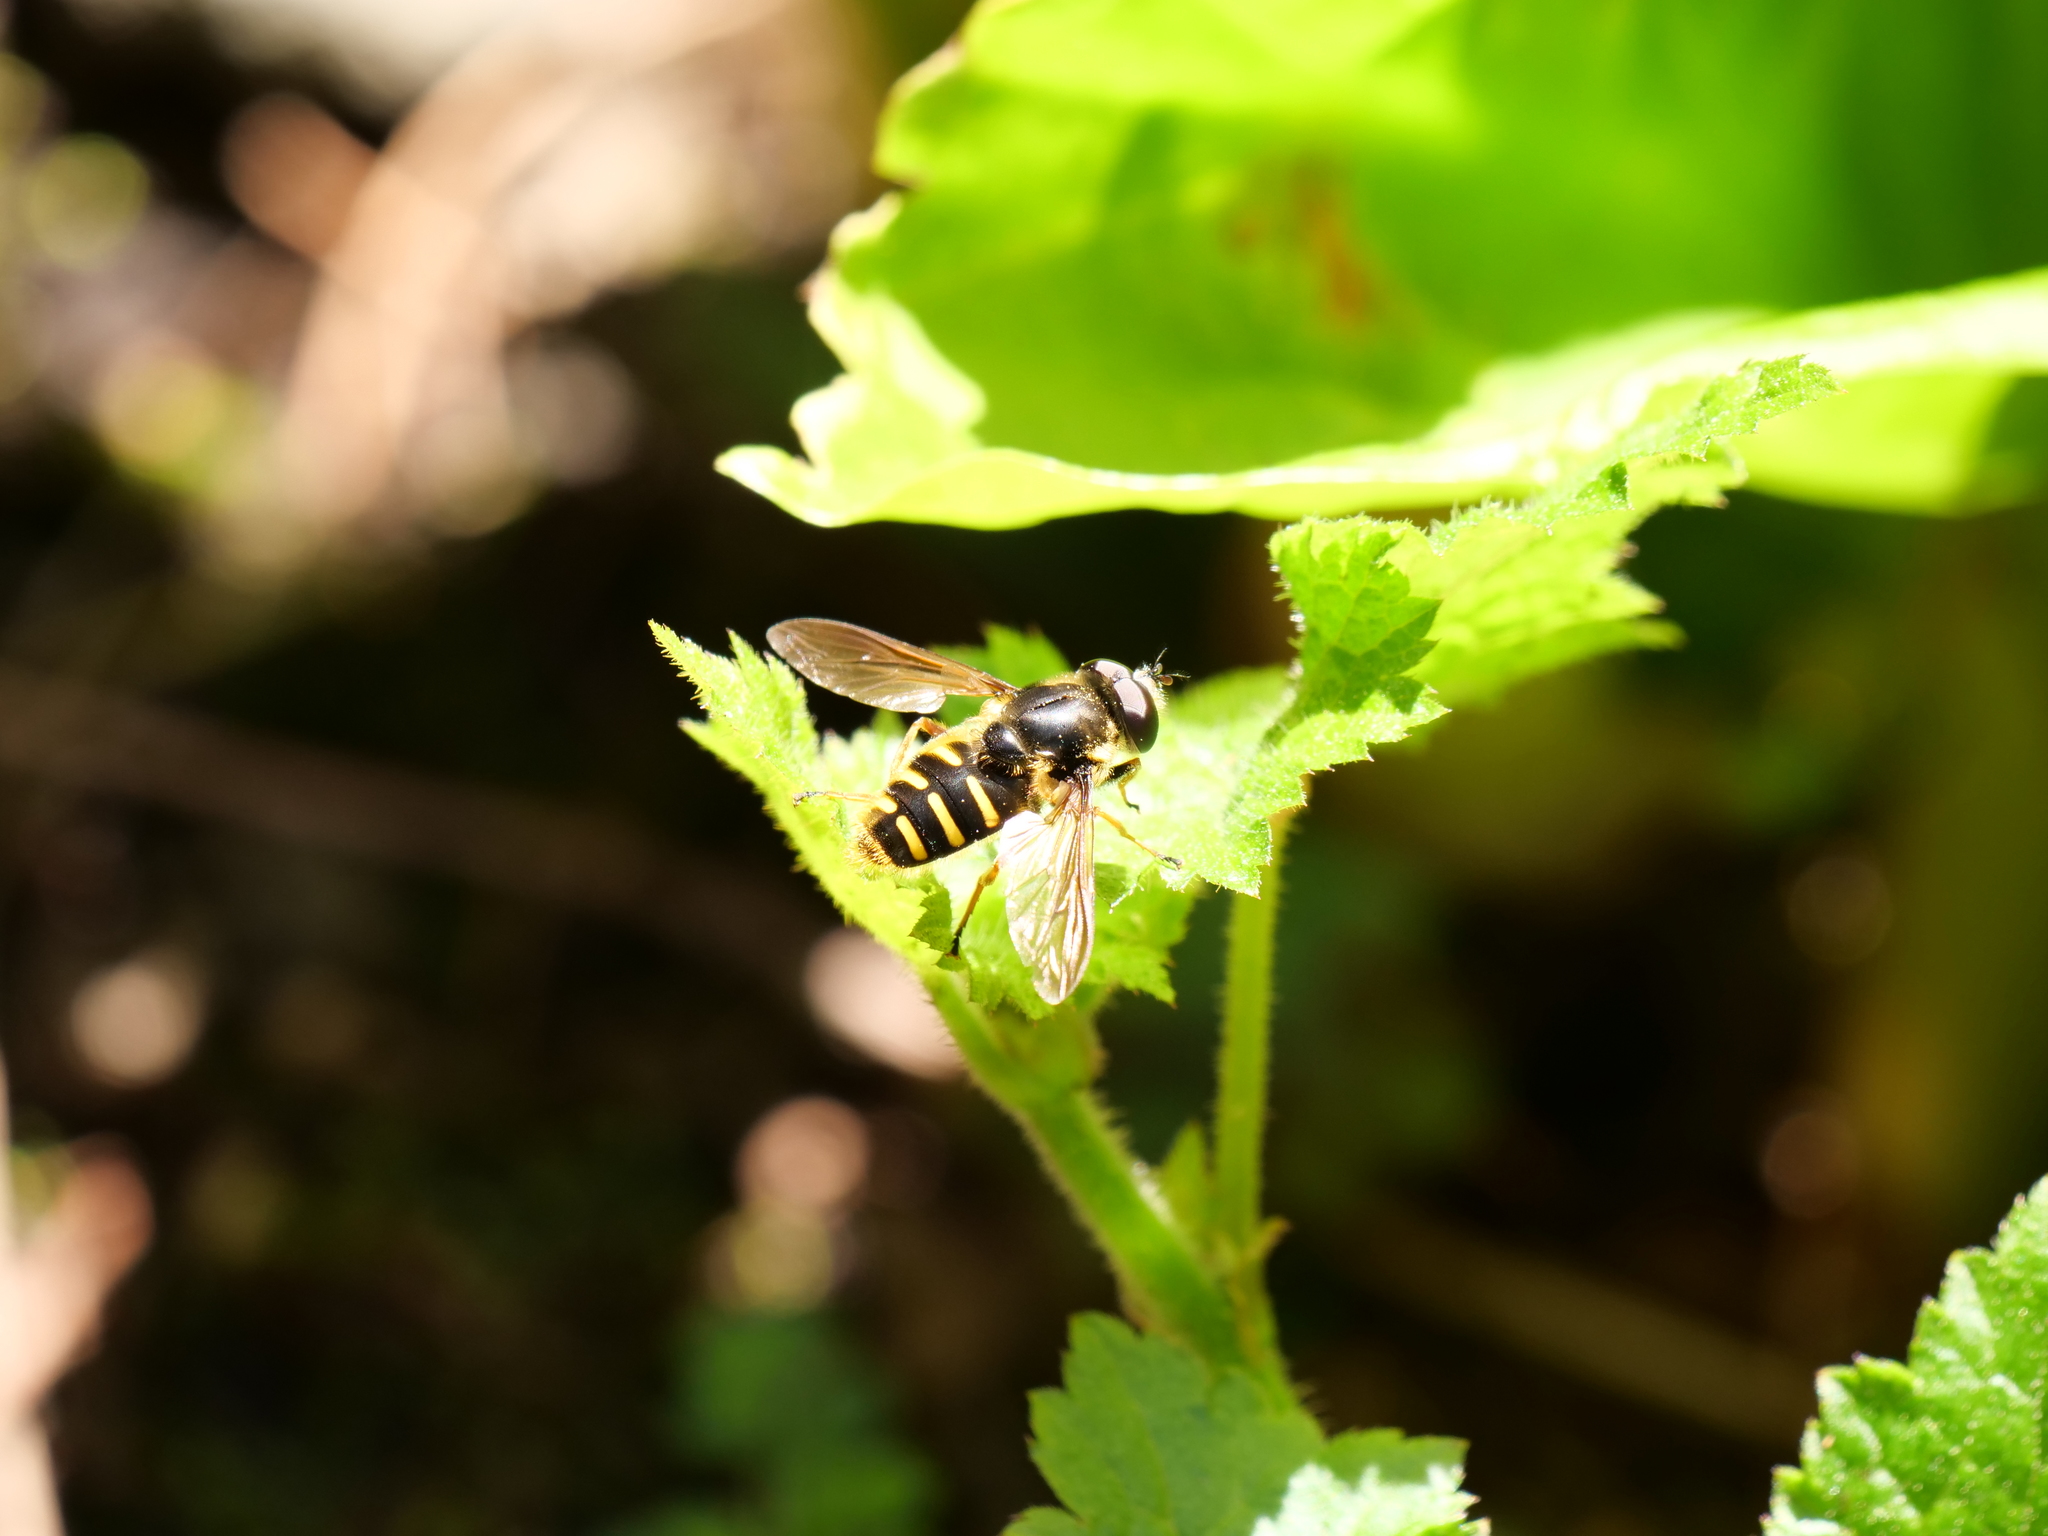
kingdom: Animalia
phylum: Arthropoda
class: Insecta
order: Diptera
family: Syrphidae
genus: Sericomyia
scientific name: Sericomyia chalcopyga
